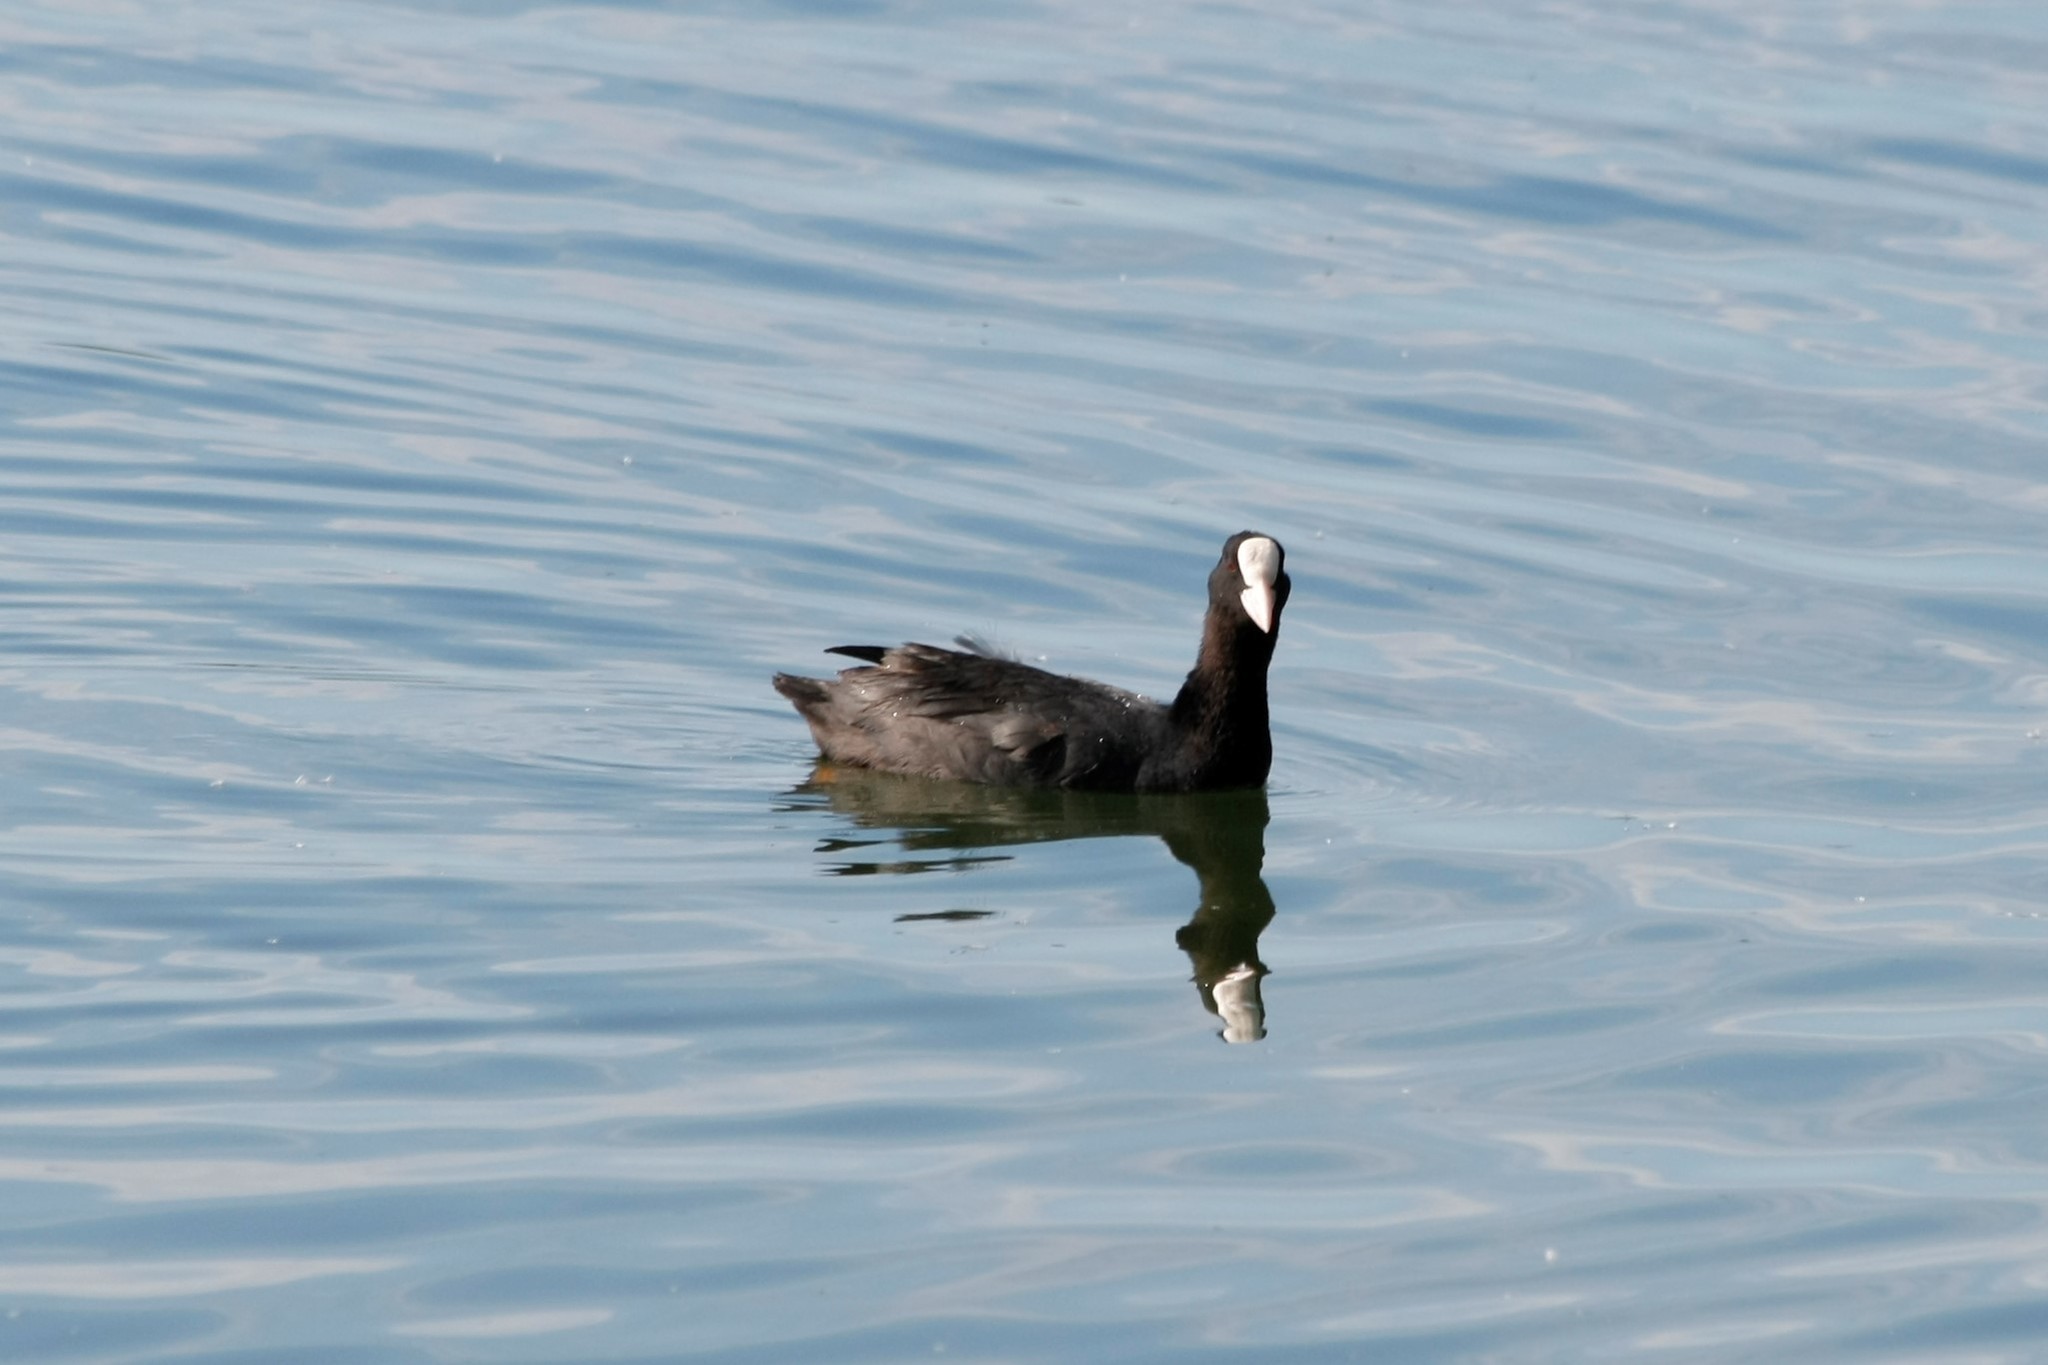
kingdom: Animalia
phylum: Chordata
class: Aves
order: Gruiformes
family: Rallidae
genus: Fulica
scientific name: Fulica atra
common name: Eurasian coot
